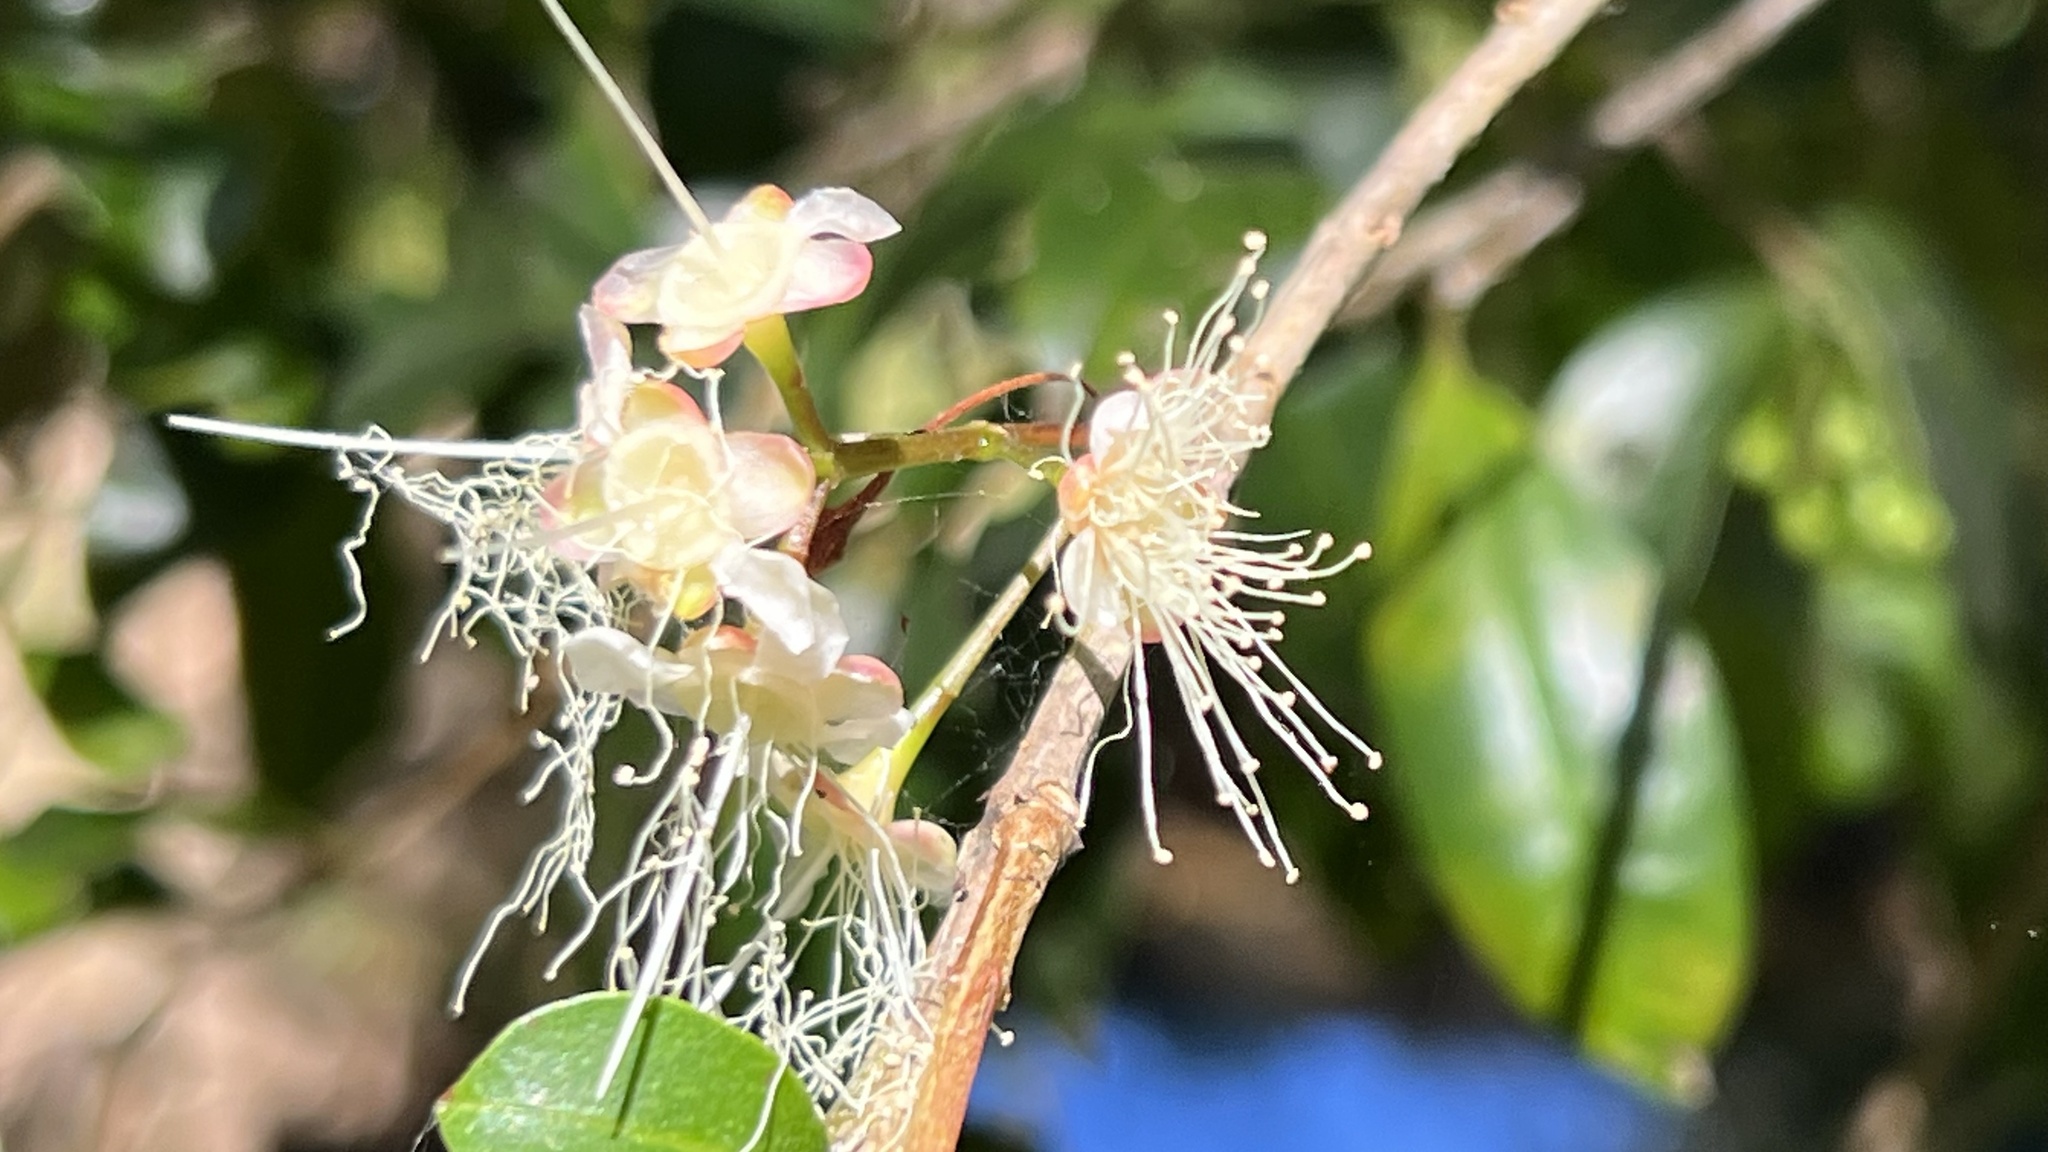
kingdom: Plantae
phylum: Tracheophyta
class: Magnoliopsida
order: Myrtales
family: Myrtaceae
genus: Syzygium
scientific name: Syzygium australe
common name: Australian brush-cherry
